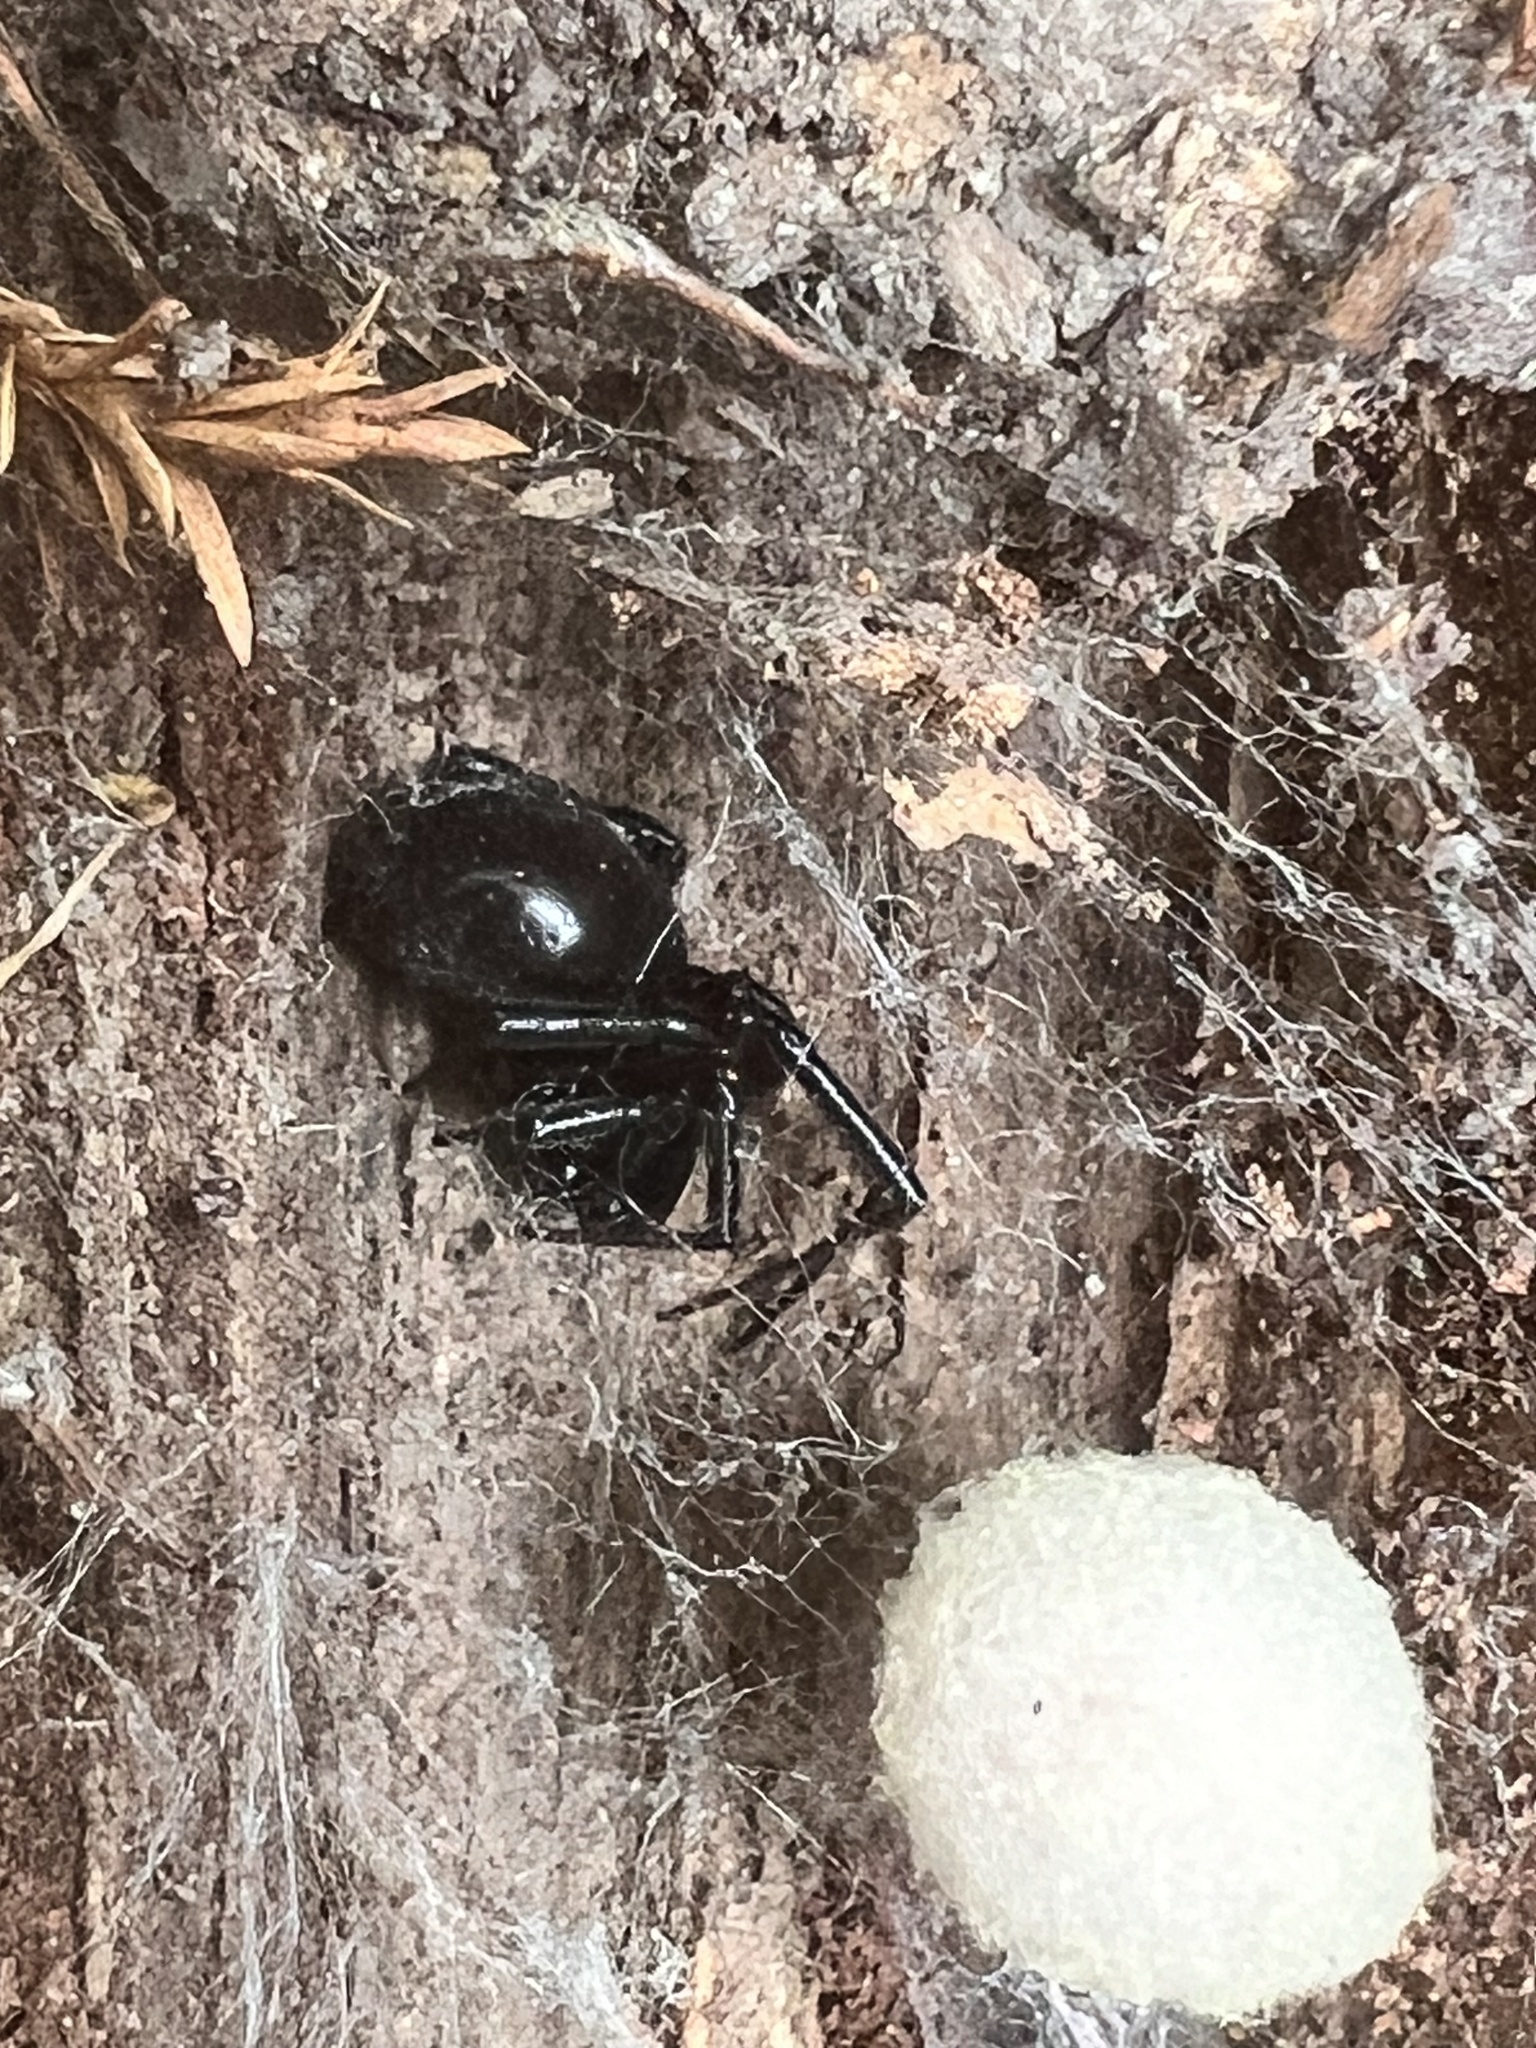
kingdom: Animalia
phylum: Arthropoda
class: Arachnida
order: Araneae
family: Theridiidae
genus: Steatoda
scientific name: Steatoda capensis
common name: Cobweb weaver
